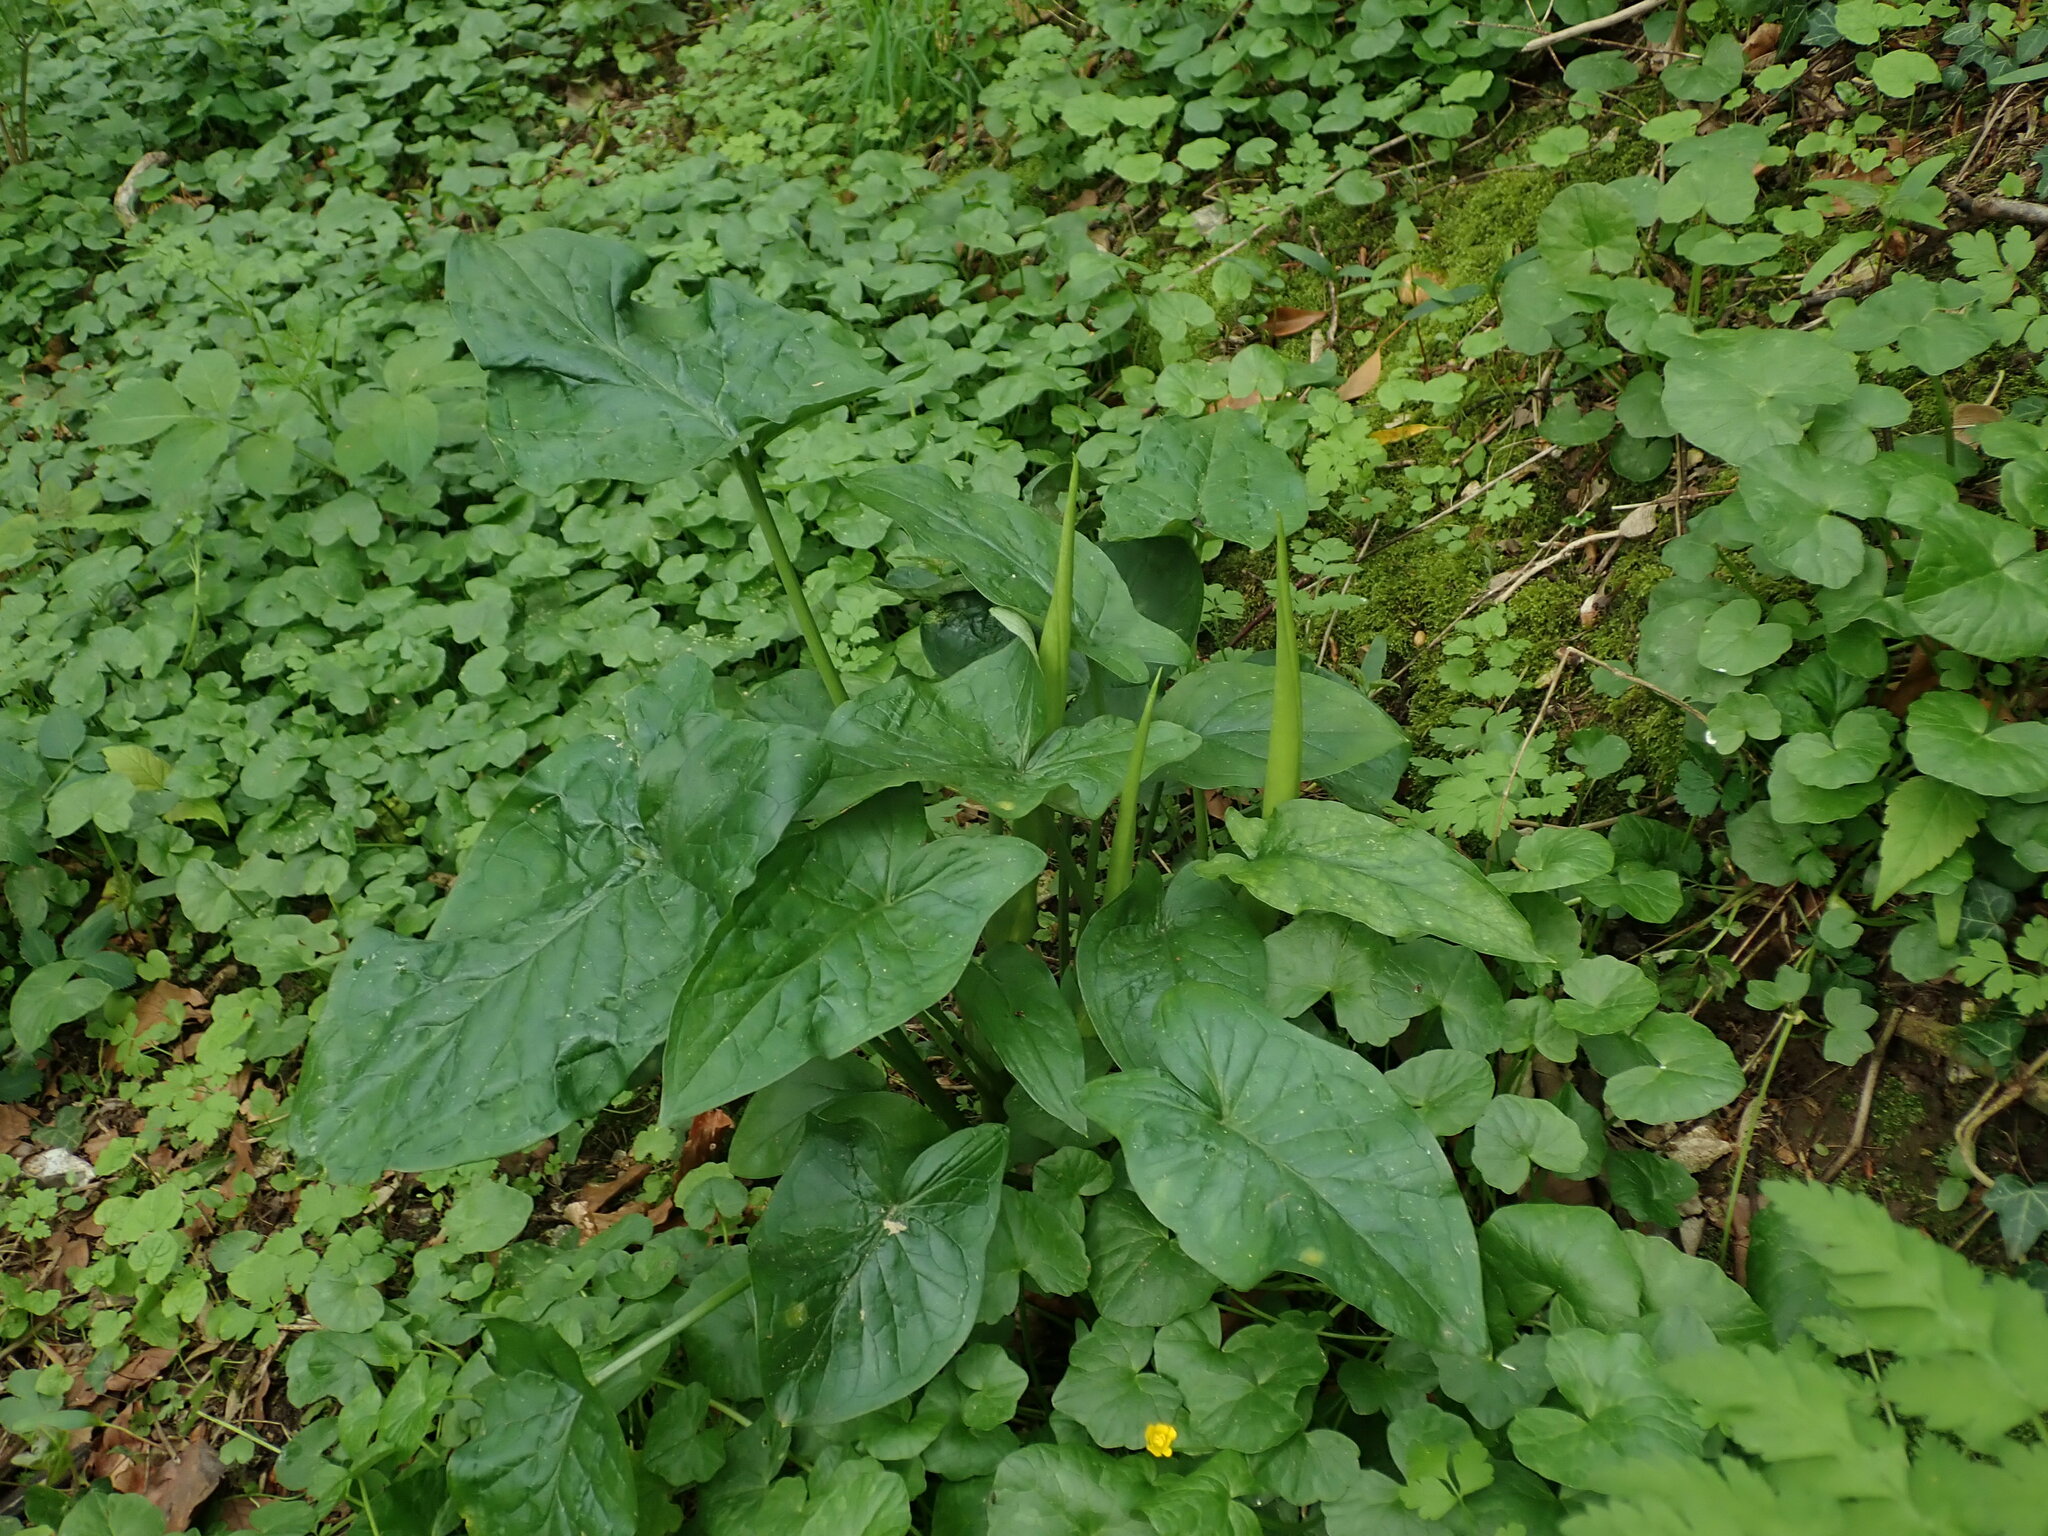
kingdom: Plantae
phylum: Tracheophyta
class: Liliopsida
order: Alismatales
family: Araceae
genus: Arum
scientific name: Arum maculatum
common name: Lords-and-ladies
